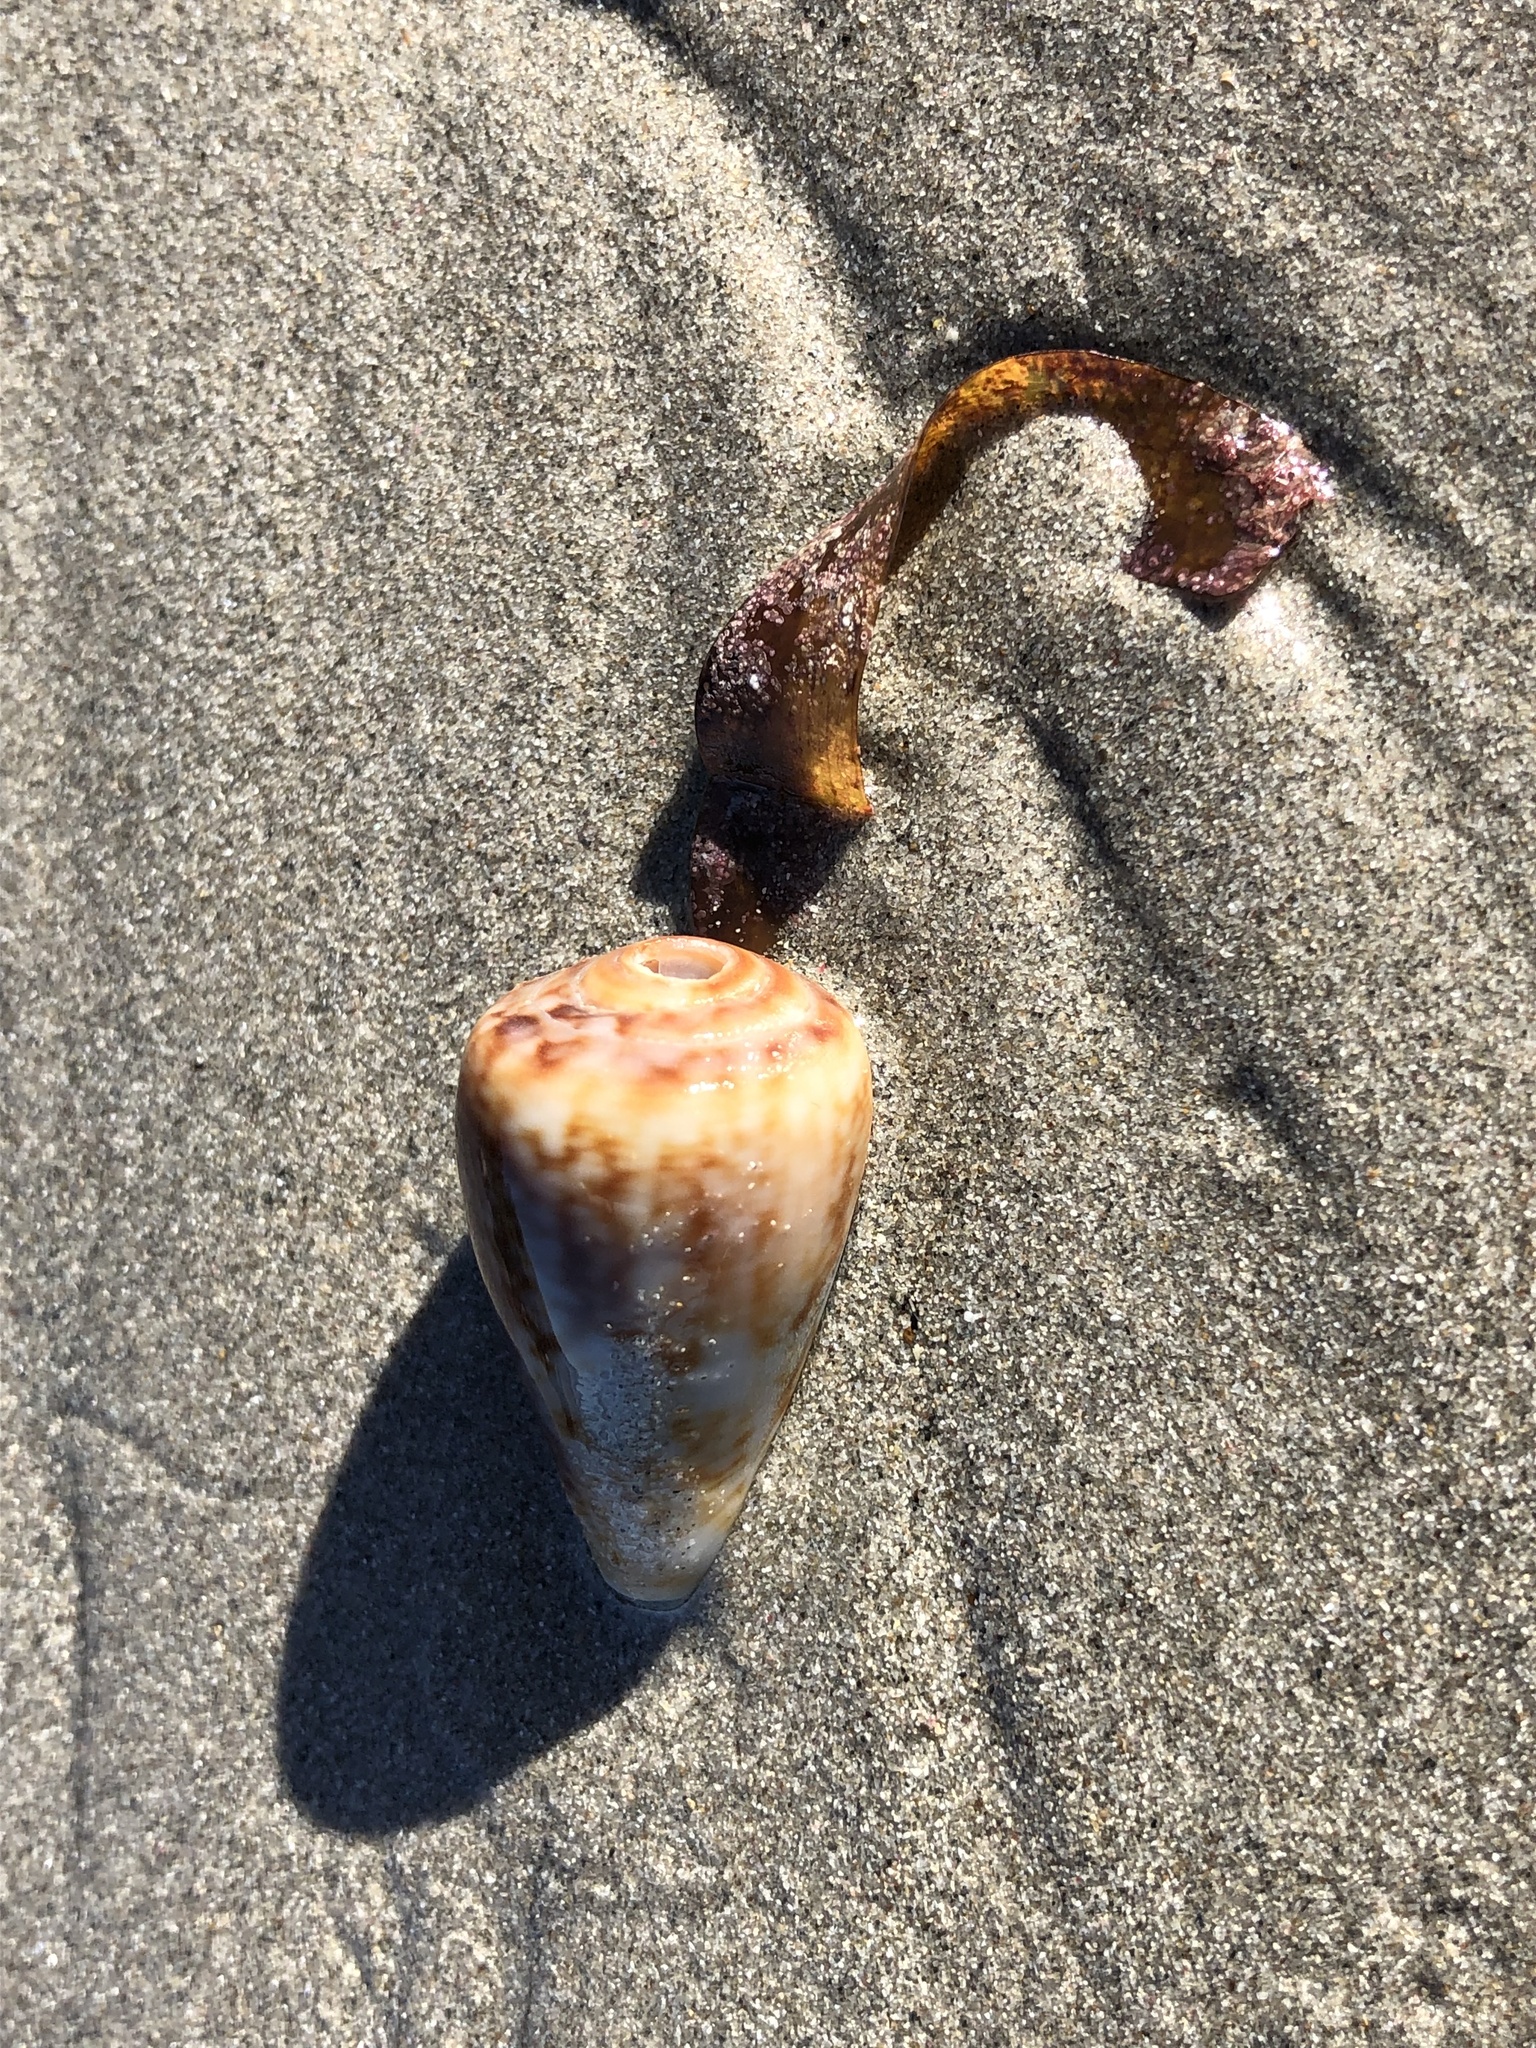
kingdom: Animalia
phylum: Mollusca
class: Gastropoda
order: Neogastropoda
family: Conidae
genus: Conus
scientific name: Conus anemone
